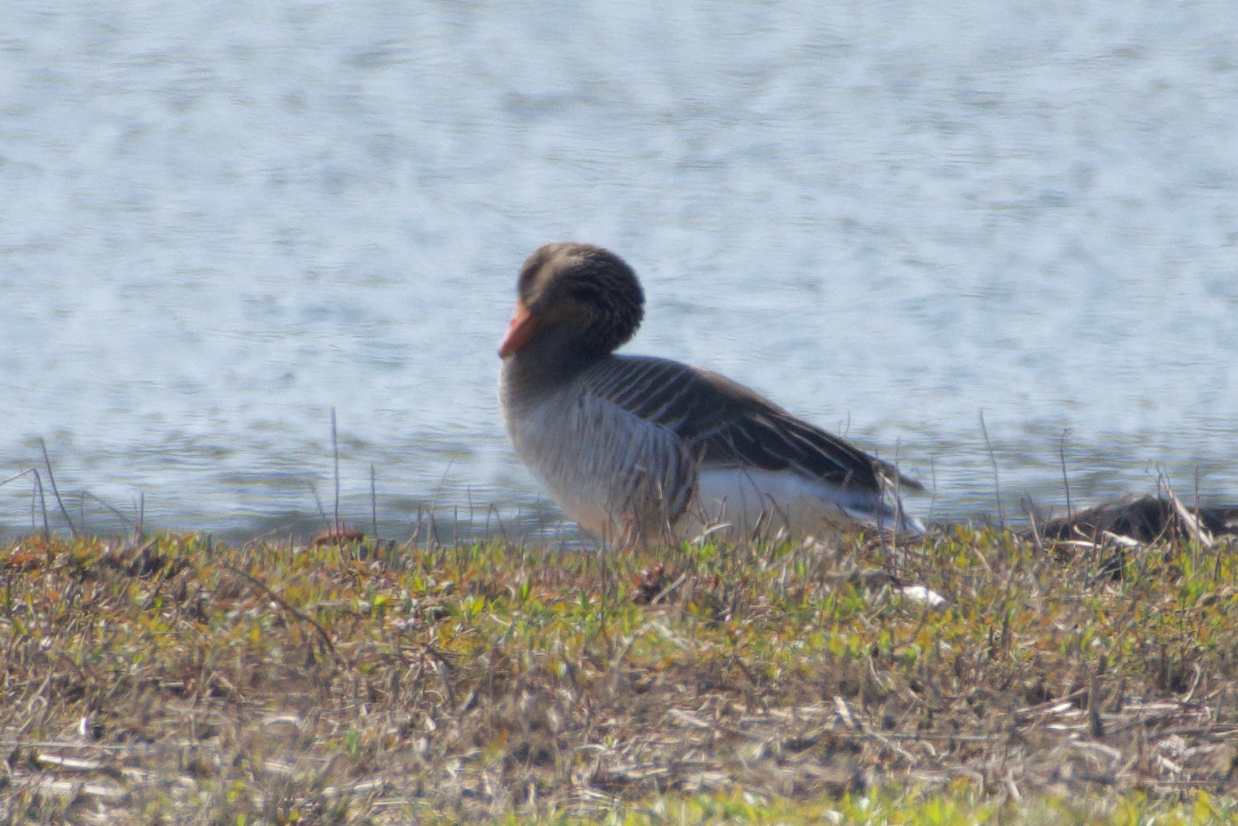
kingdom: Animalia
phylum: Chordata
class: Aves
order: Anseriformes
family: Anatidae
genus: Anser
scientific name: Anser anser
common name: Greylag goose
